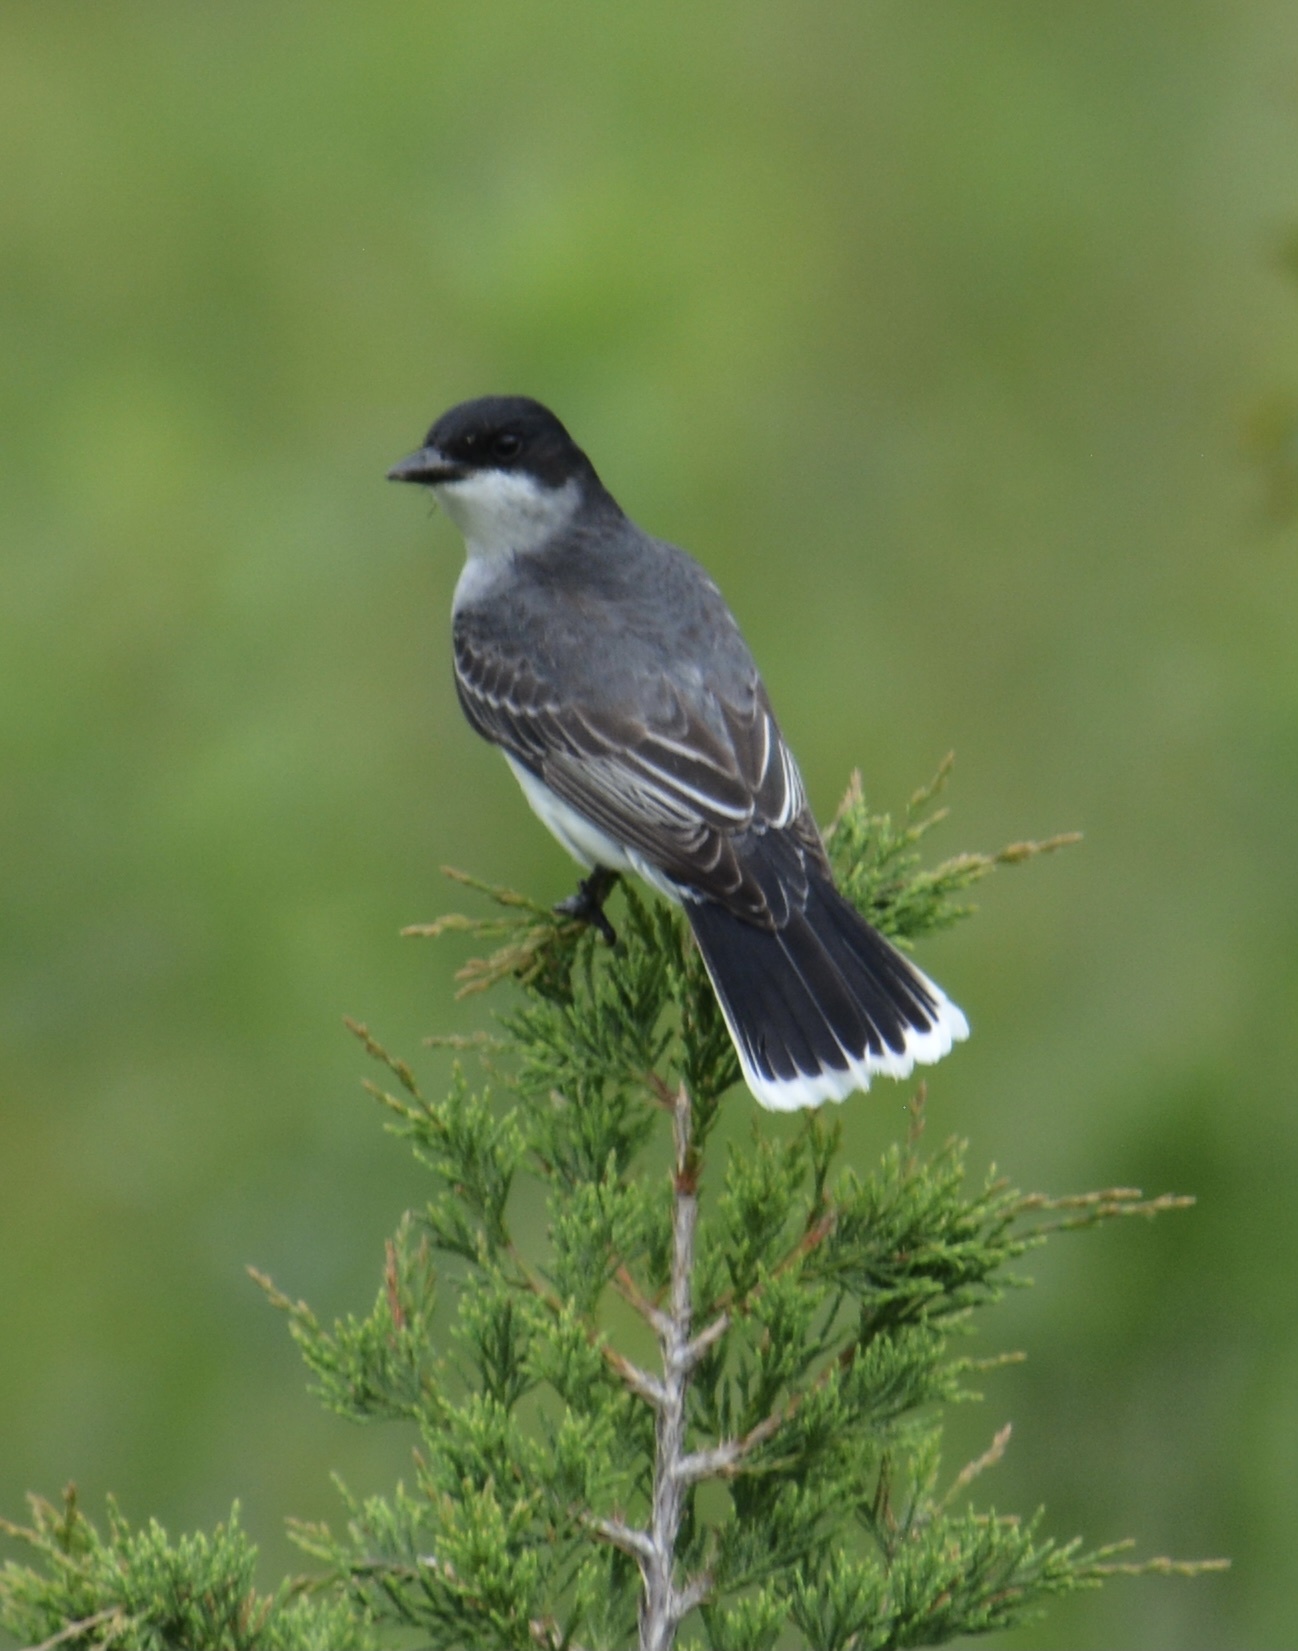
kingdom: Animalia
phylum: Chordata
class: Aves
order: Passeriformes
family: Tyrannidae
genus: Tyrannus
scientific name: Tyrannus tyrannus
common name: Eastern kingbird
